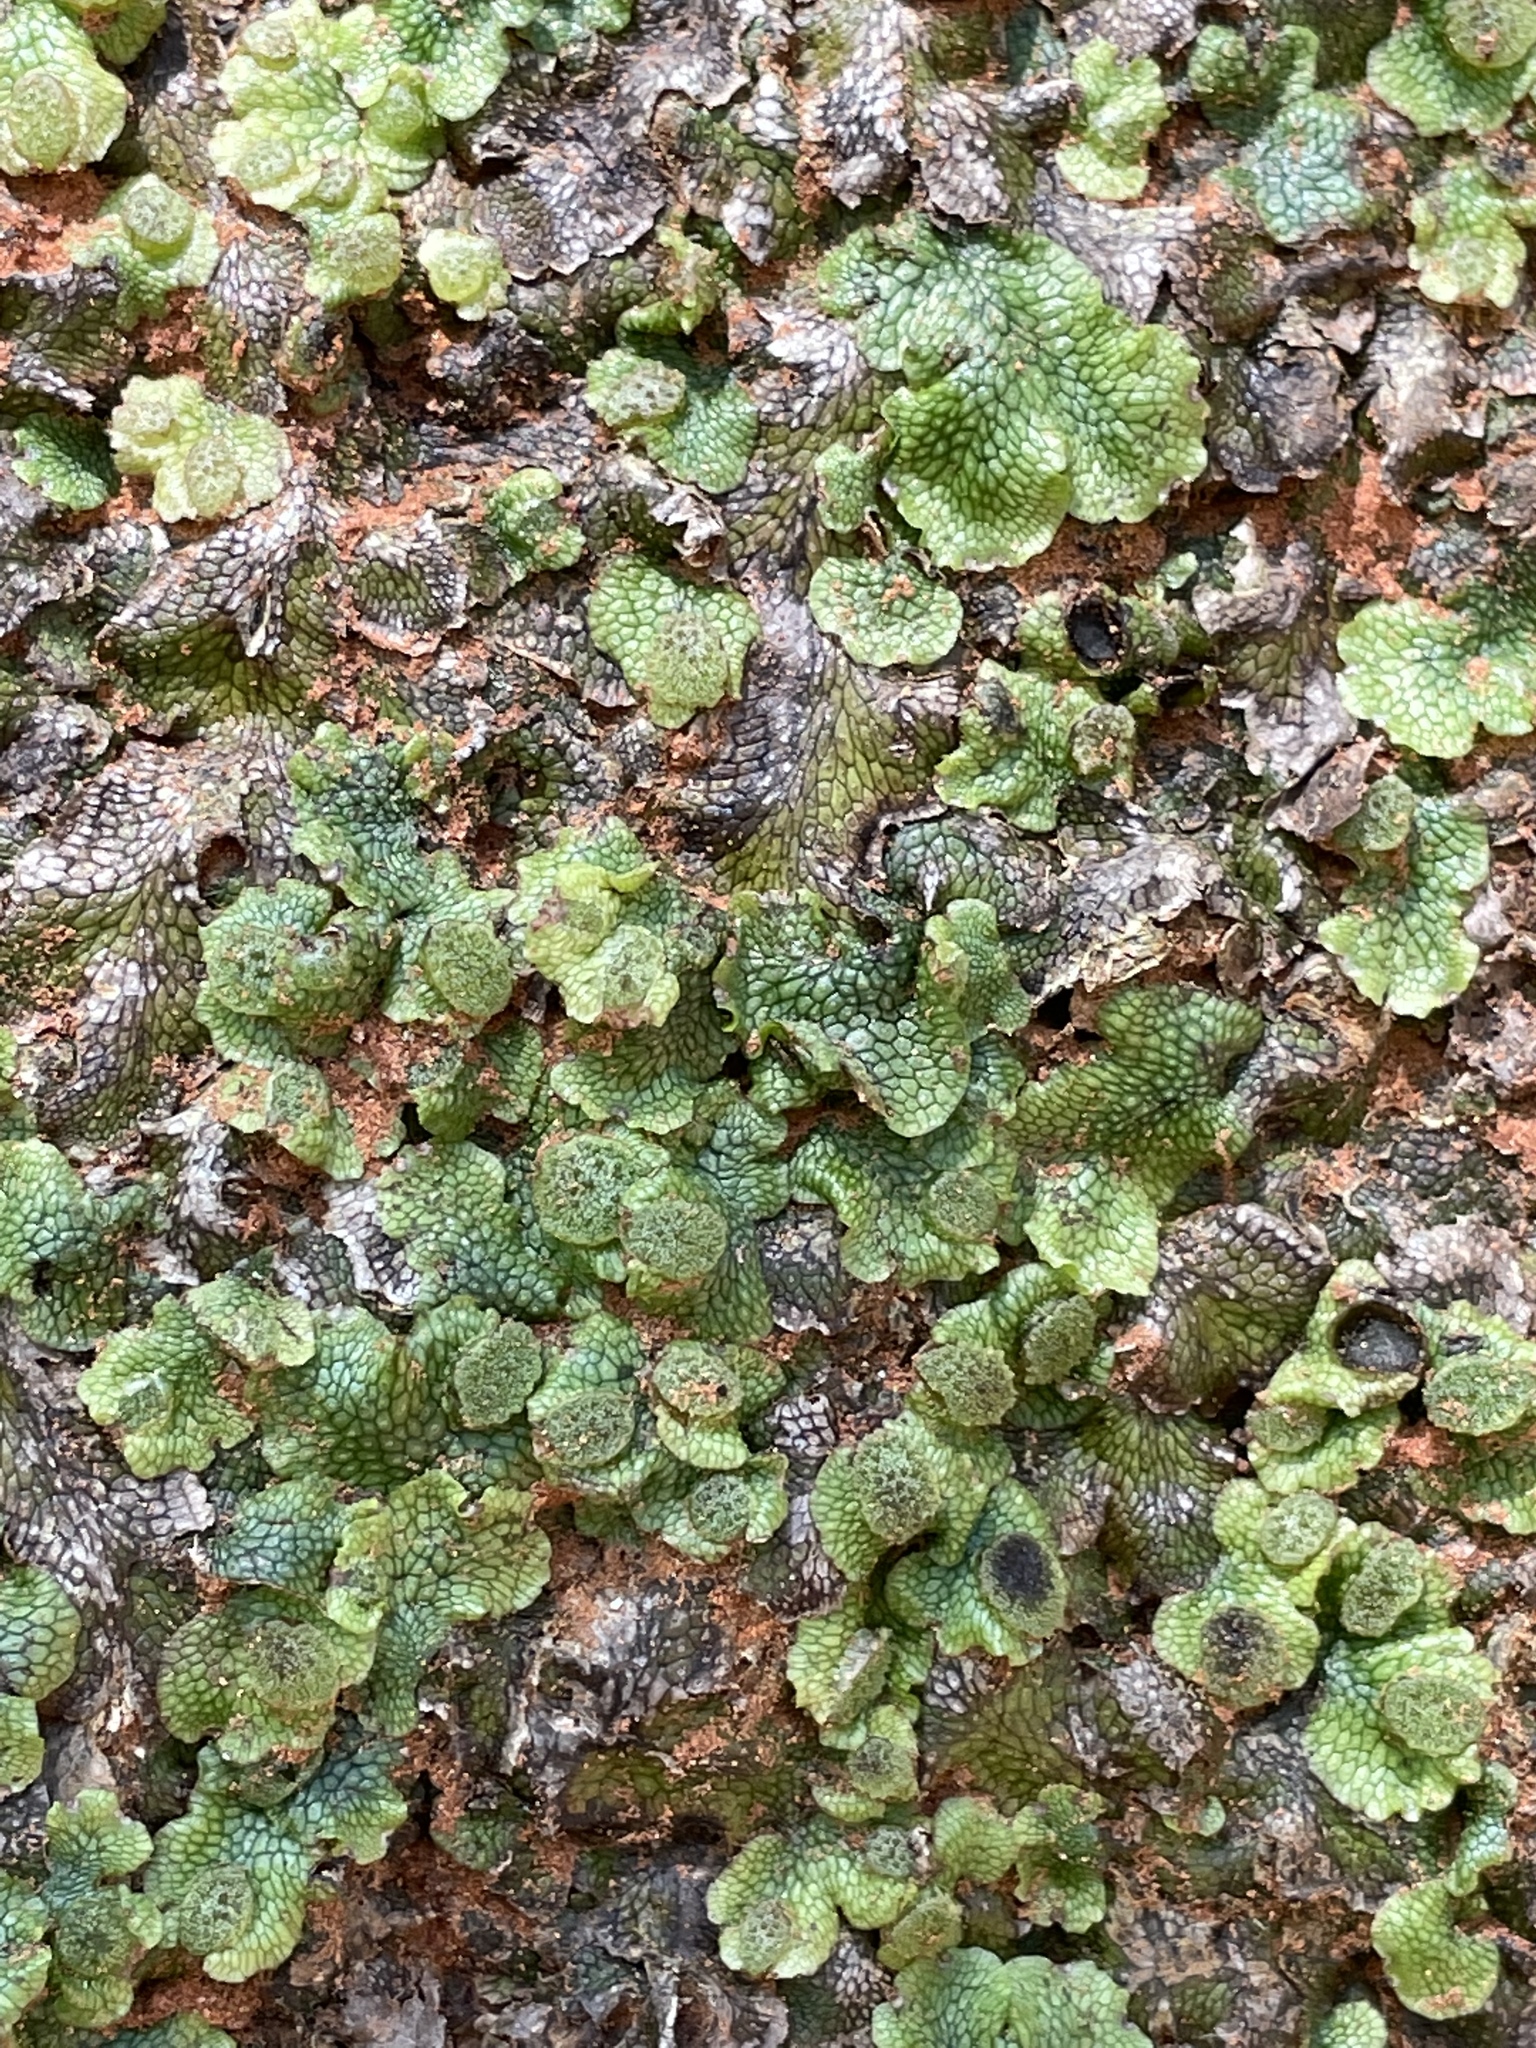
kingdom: Plantae
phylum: Marchantiophyta
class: Marchantiopsida
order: Marchantiales
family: Conocephalaceae
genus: Conocephalum
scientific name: Conocephalum salebrosum
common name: Cat-tongue liverwort
